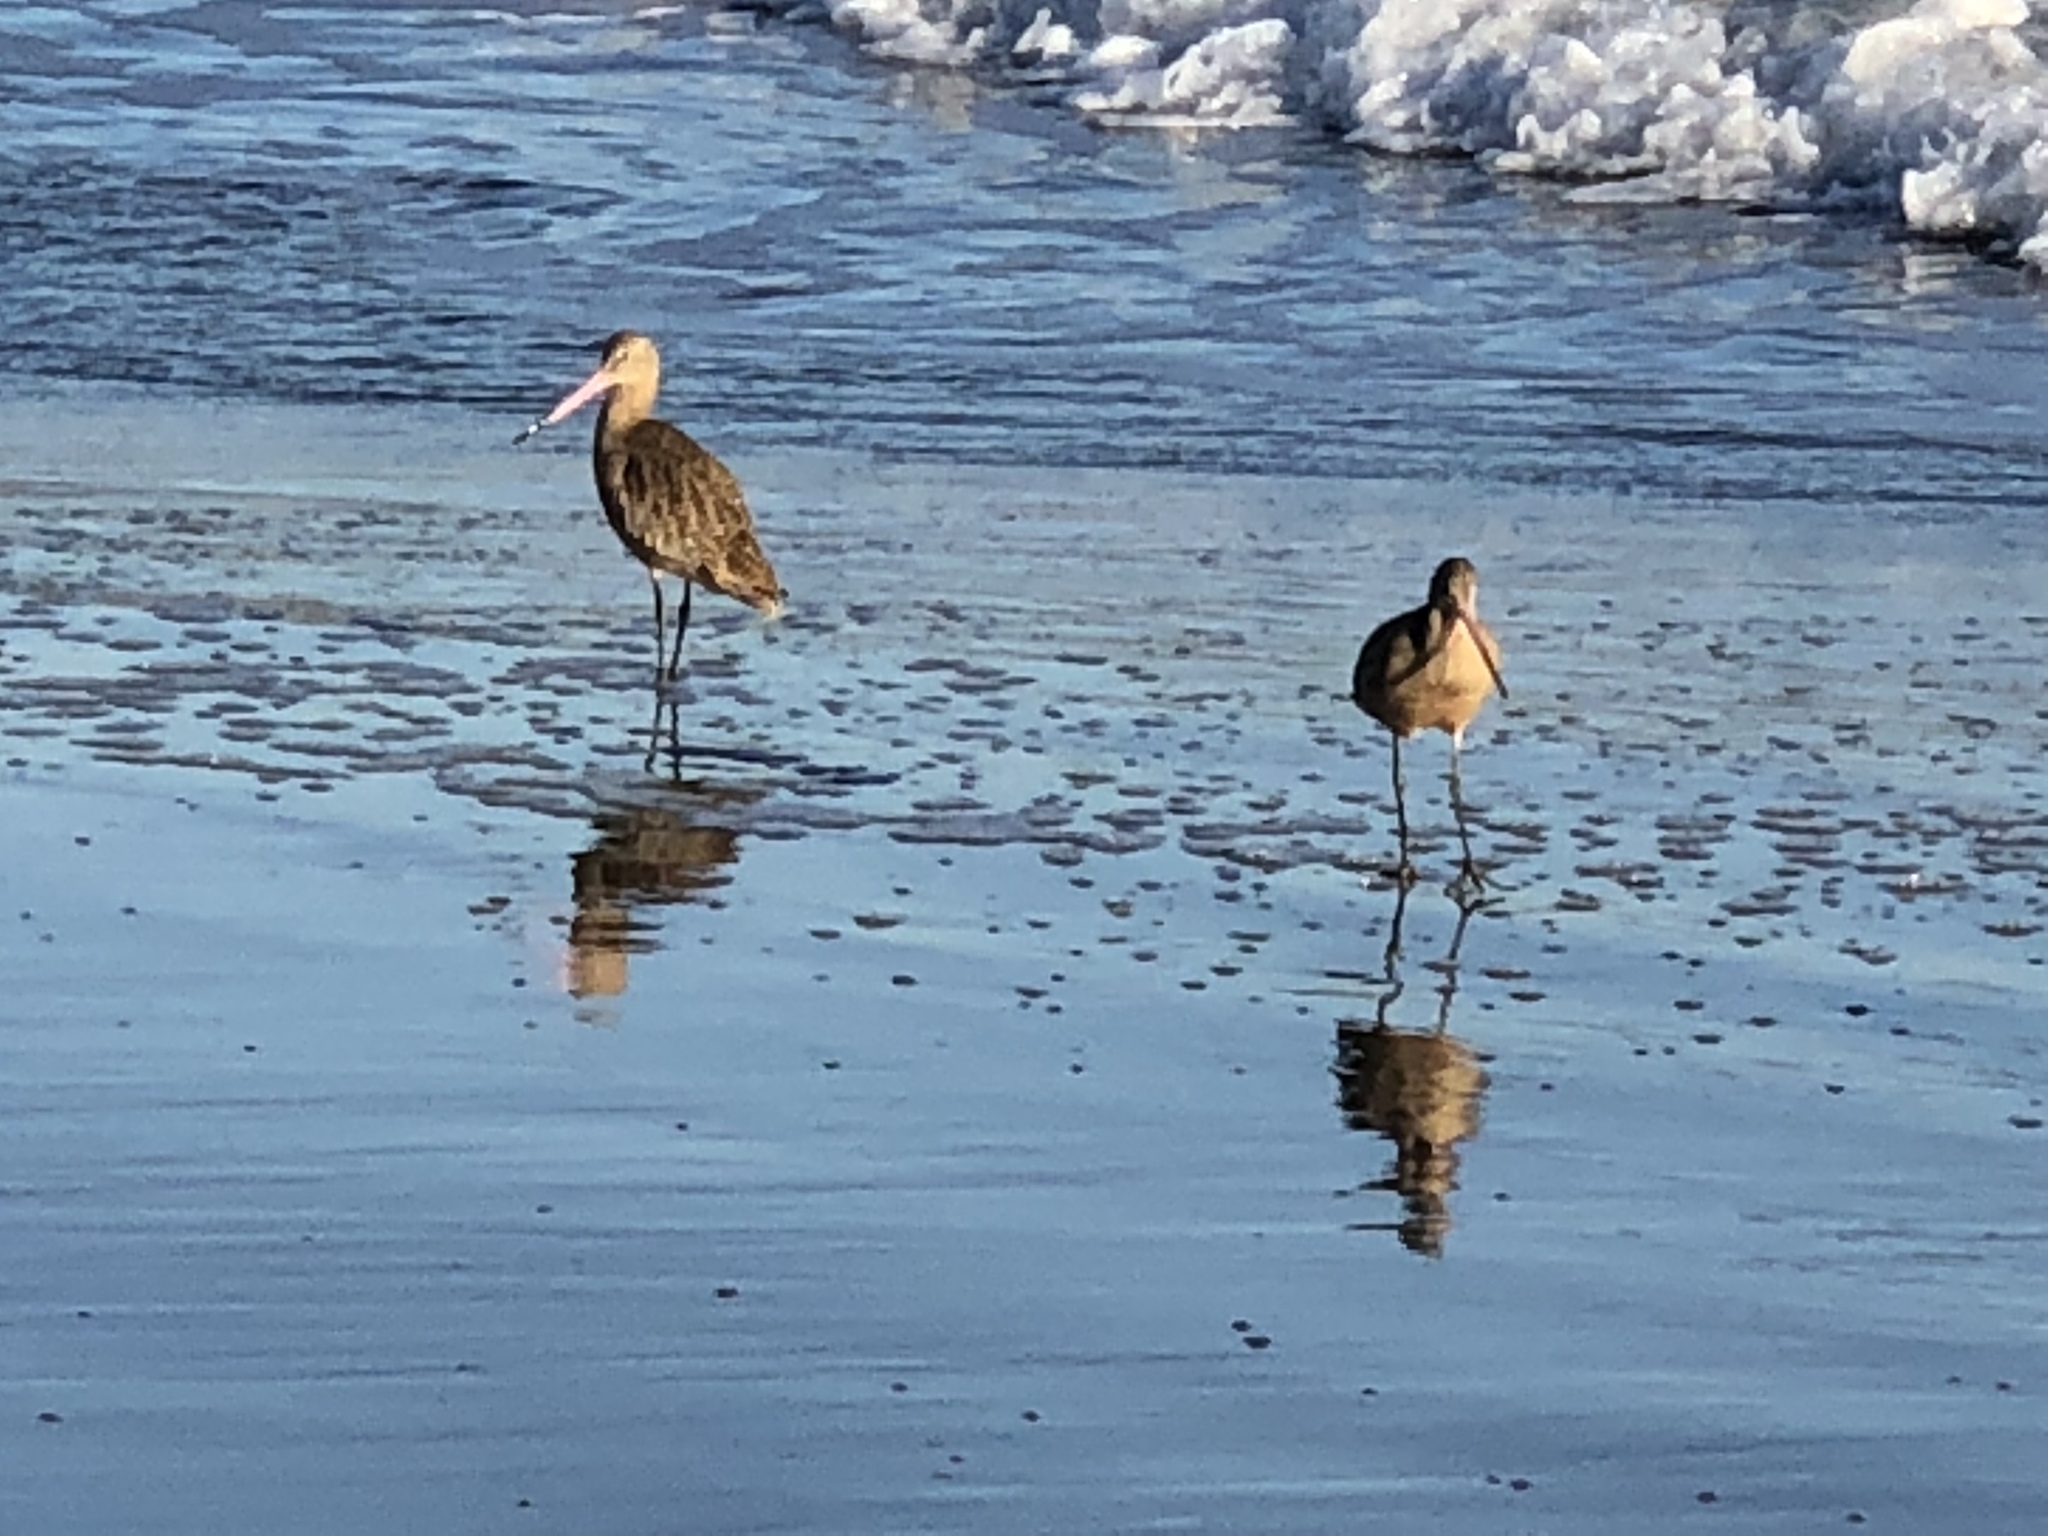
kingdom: Animalia
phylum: Chordata
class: Aves
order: Charadriiformes
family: Scolopacidae
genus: Limosa
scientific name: Limosa fedoa
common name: Marbled godwit
